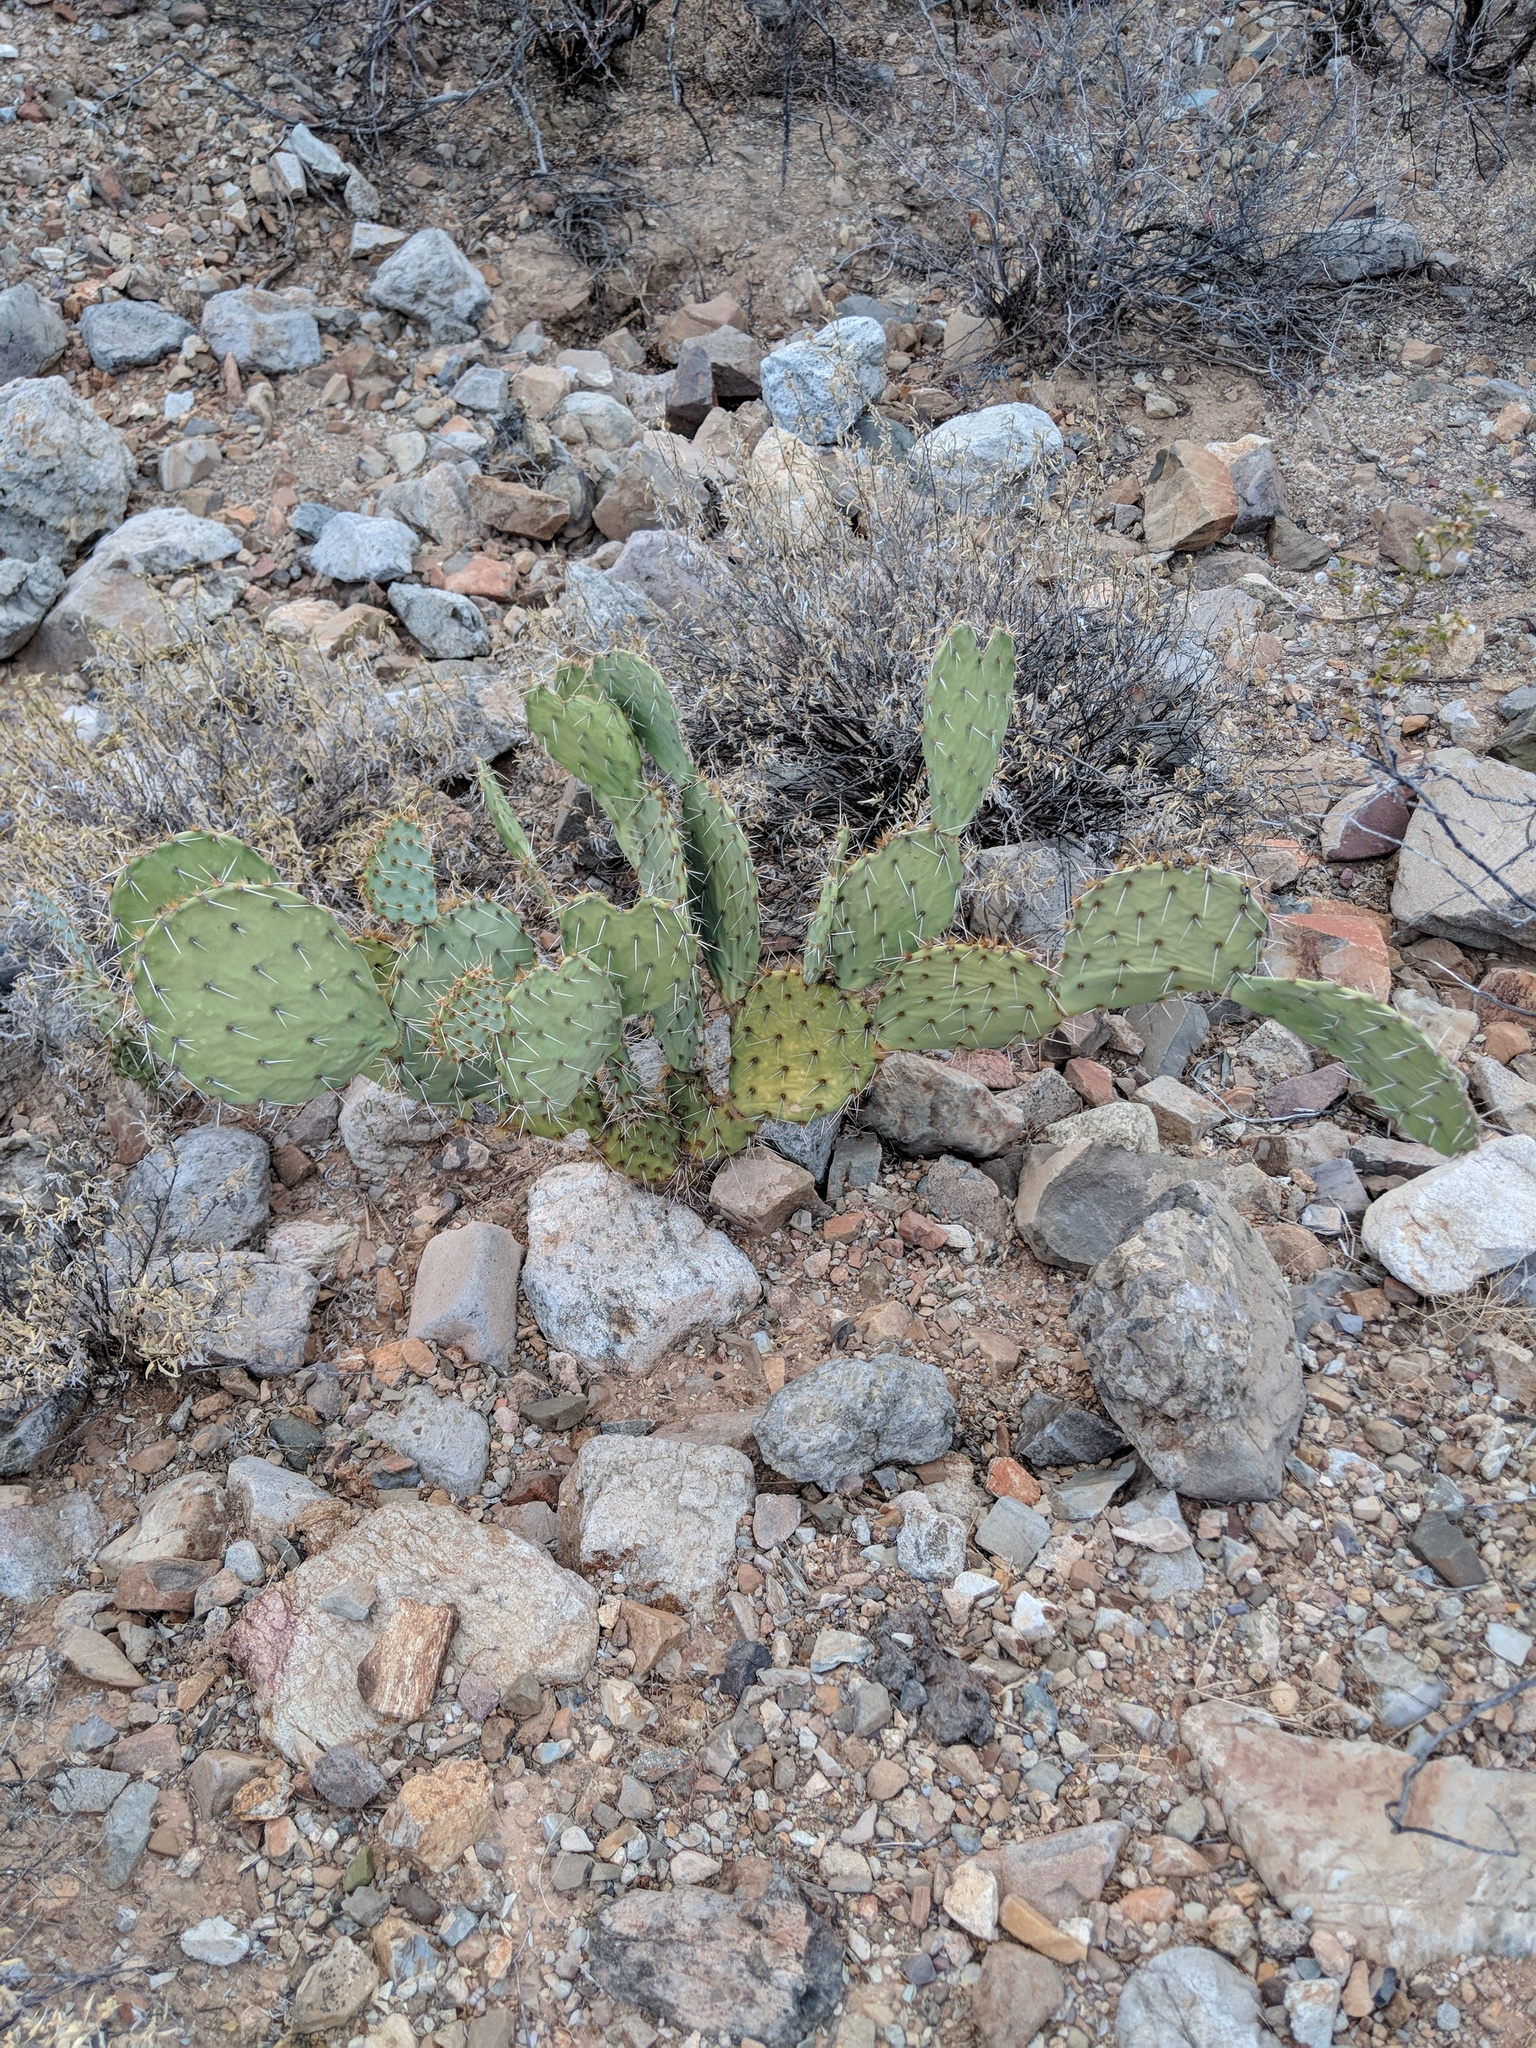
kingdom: Plantae
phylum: Tracheophyta
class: Magnoliopsida
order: Caryophyllales
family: Cactaceae
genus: Opuntia
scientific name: Opuntia engelmannii
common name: Cactus-apple
